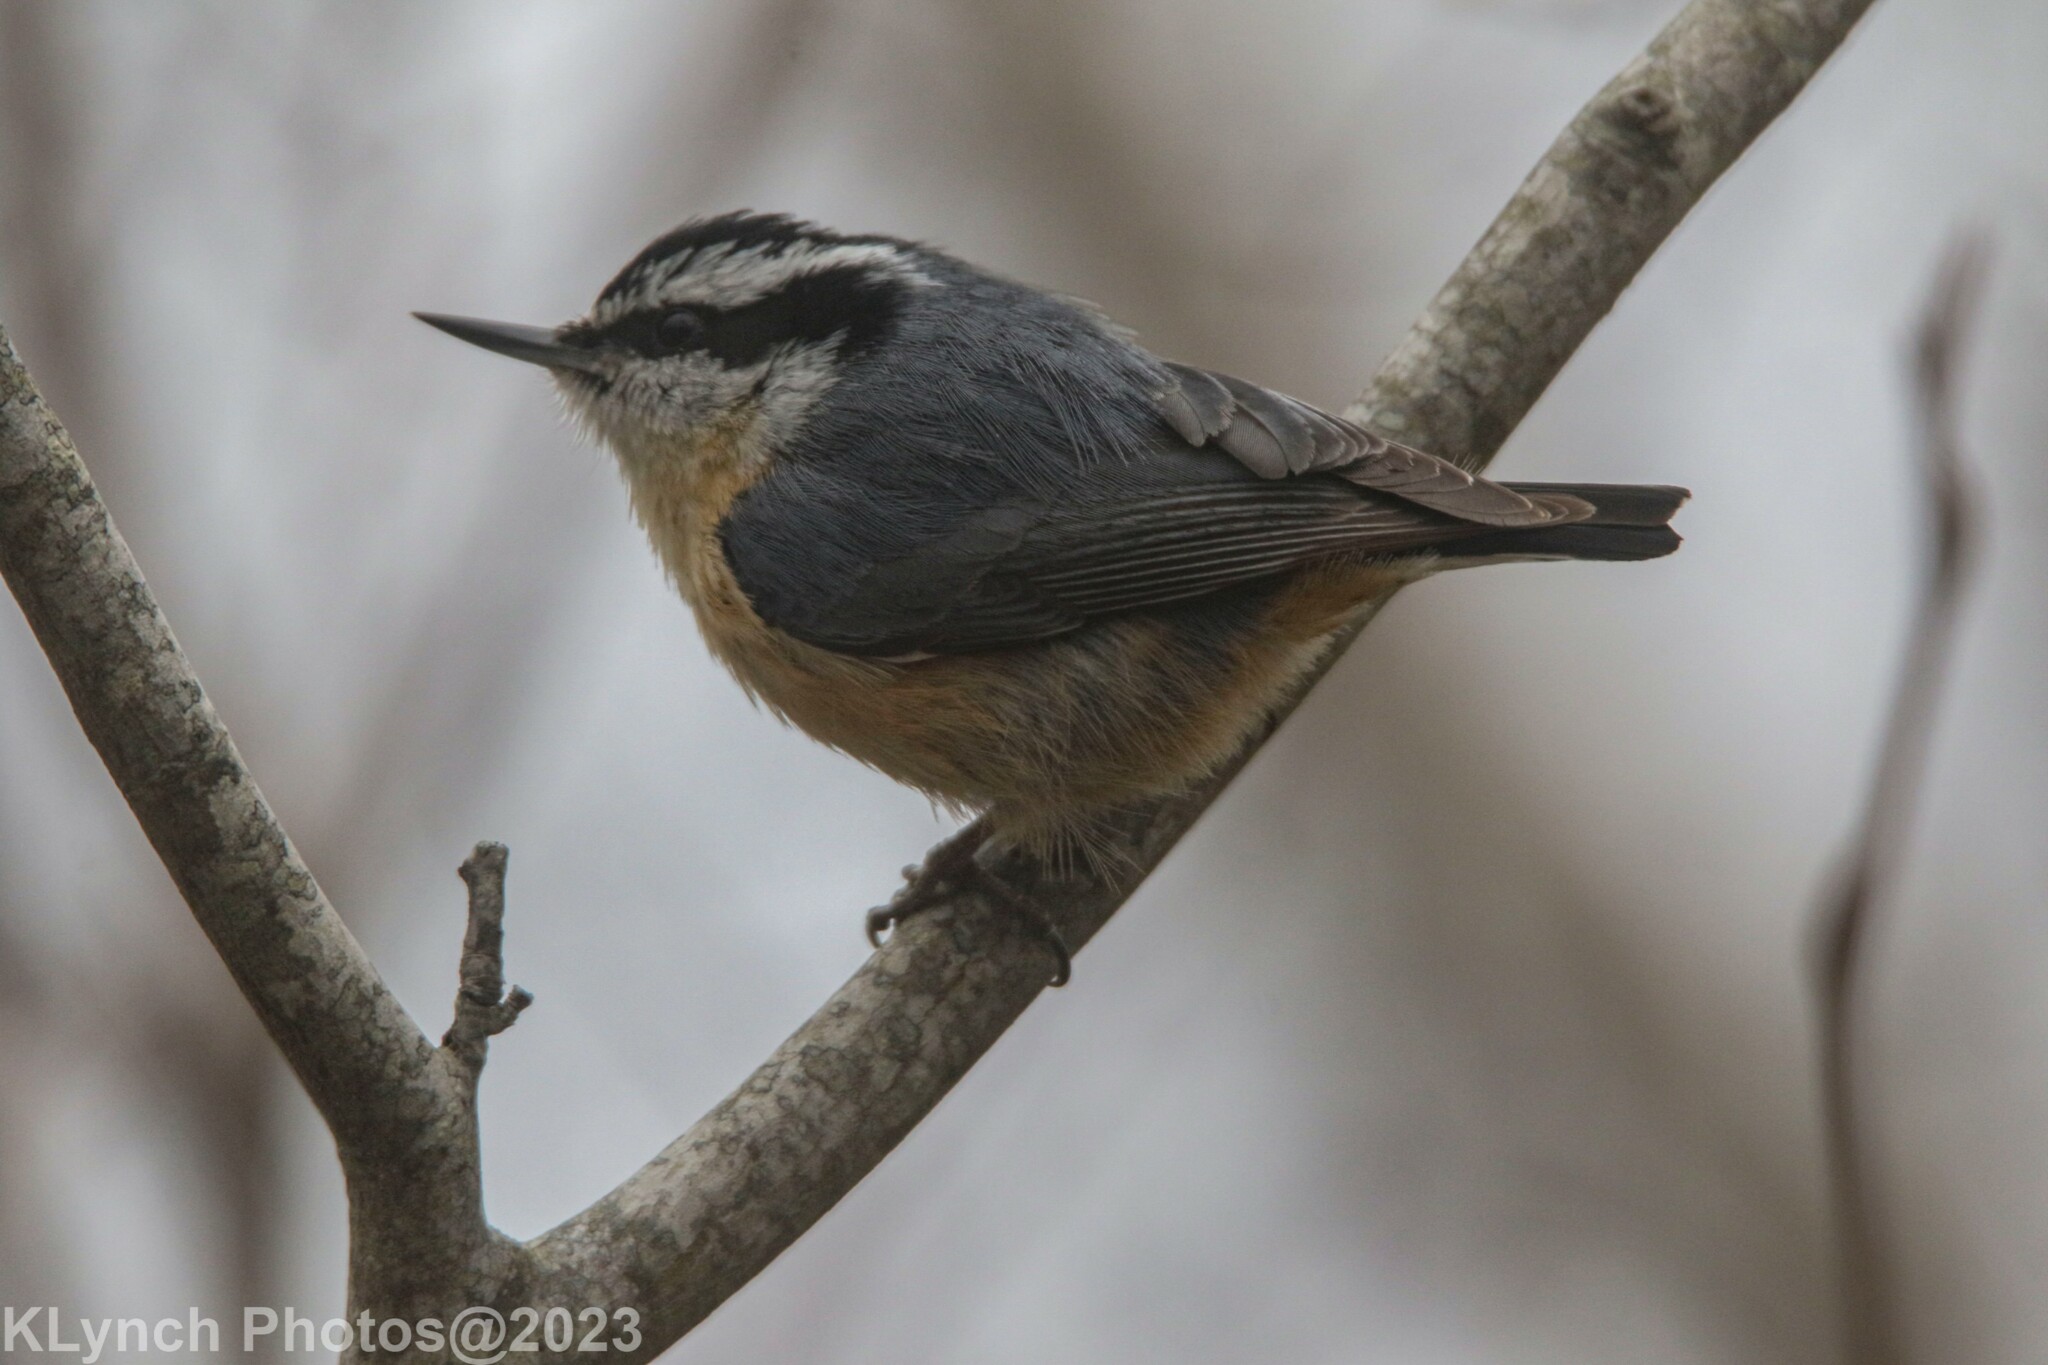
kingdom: Animalia
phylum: Chordata
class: Aves
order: Passeriformes
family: Sittidae
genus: Sitta
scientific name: Sitta canadensis
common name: Red-breasted nuthatch
